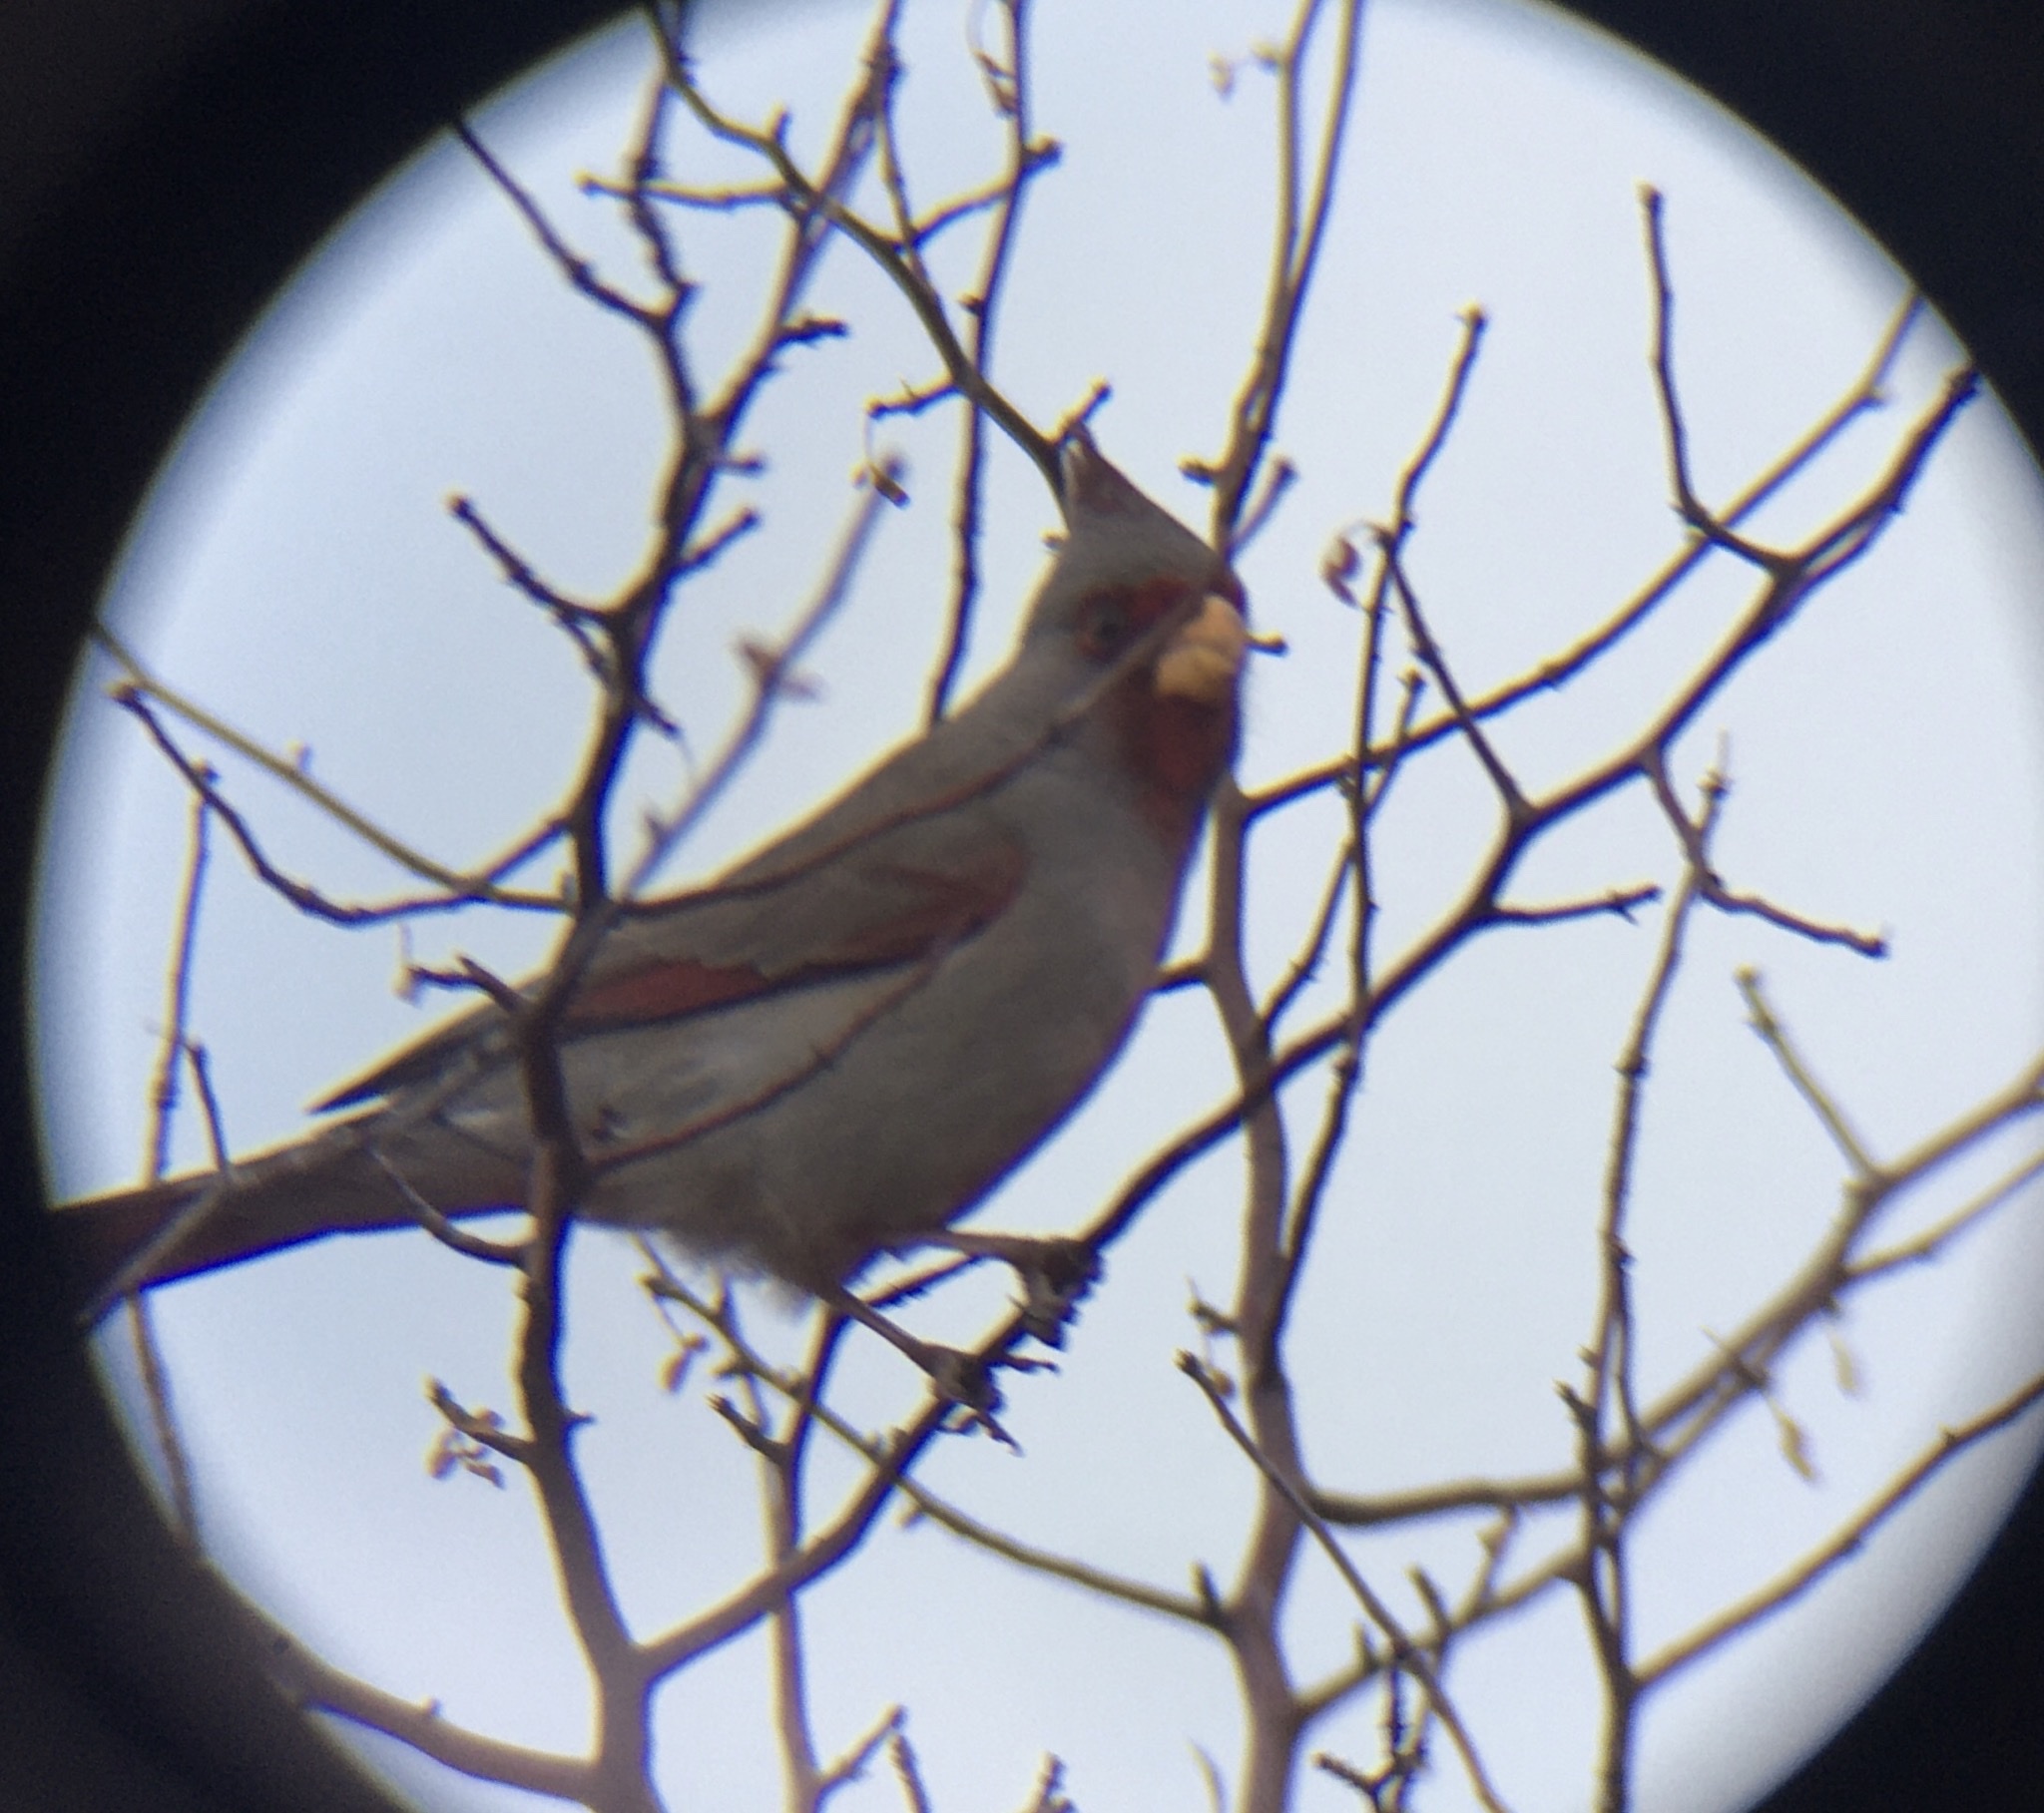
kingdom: Animalia
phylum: Chordata
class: Aves
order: Passeriformes
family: Cardinalidae
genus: Cardinalis
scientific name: Cardinalis sinuatus
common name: Pyrrhuloxia
